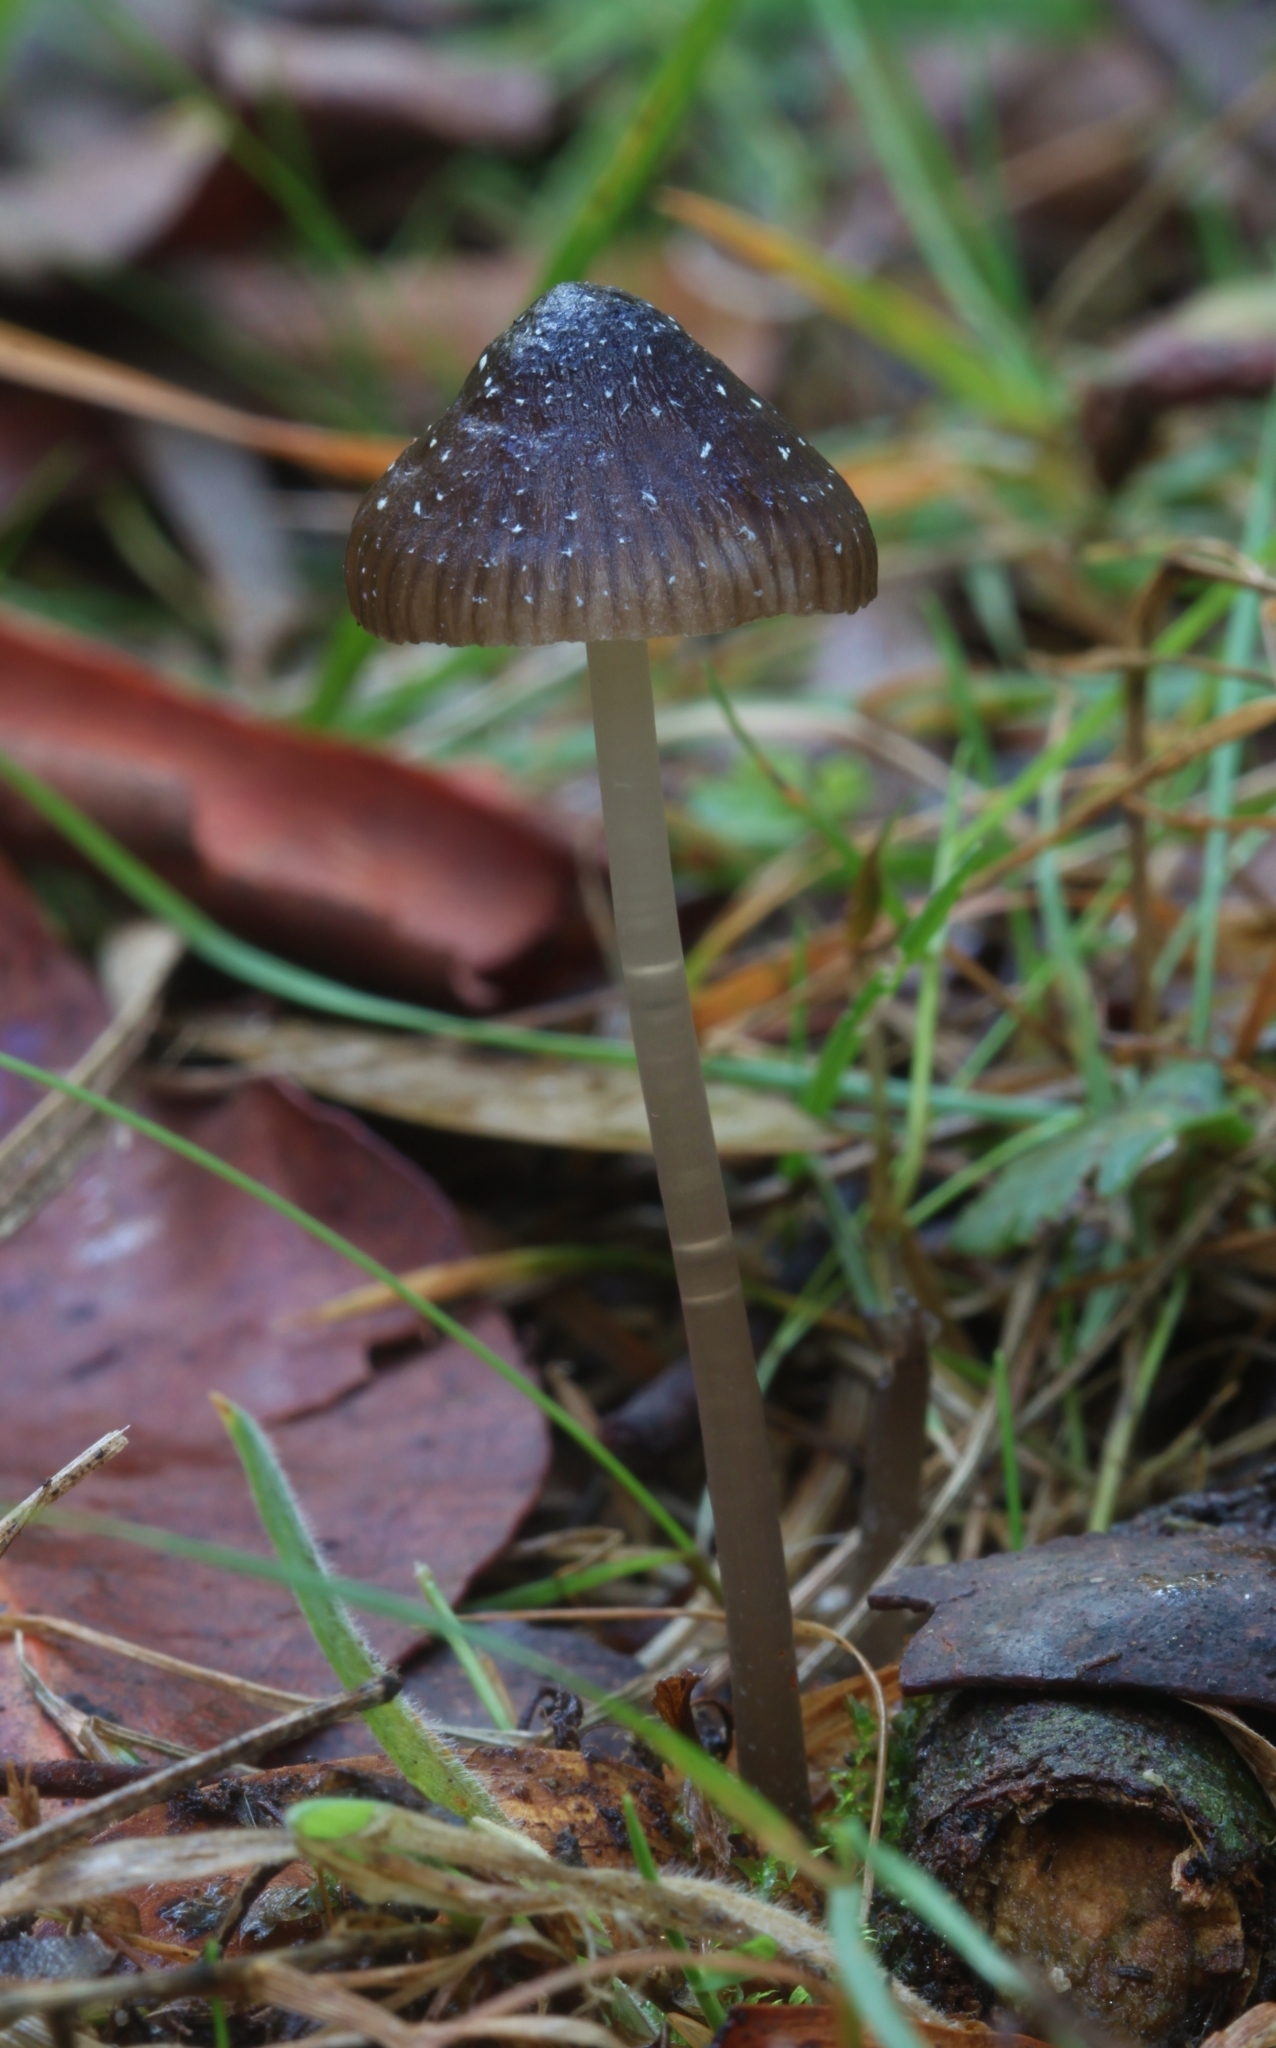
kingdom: Fungi
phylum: Basidiomycota
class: Agaricomycetes
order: Agaricales
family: Mycenaceae
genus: Mycena
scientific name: Mycena nargan
